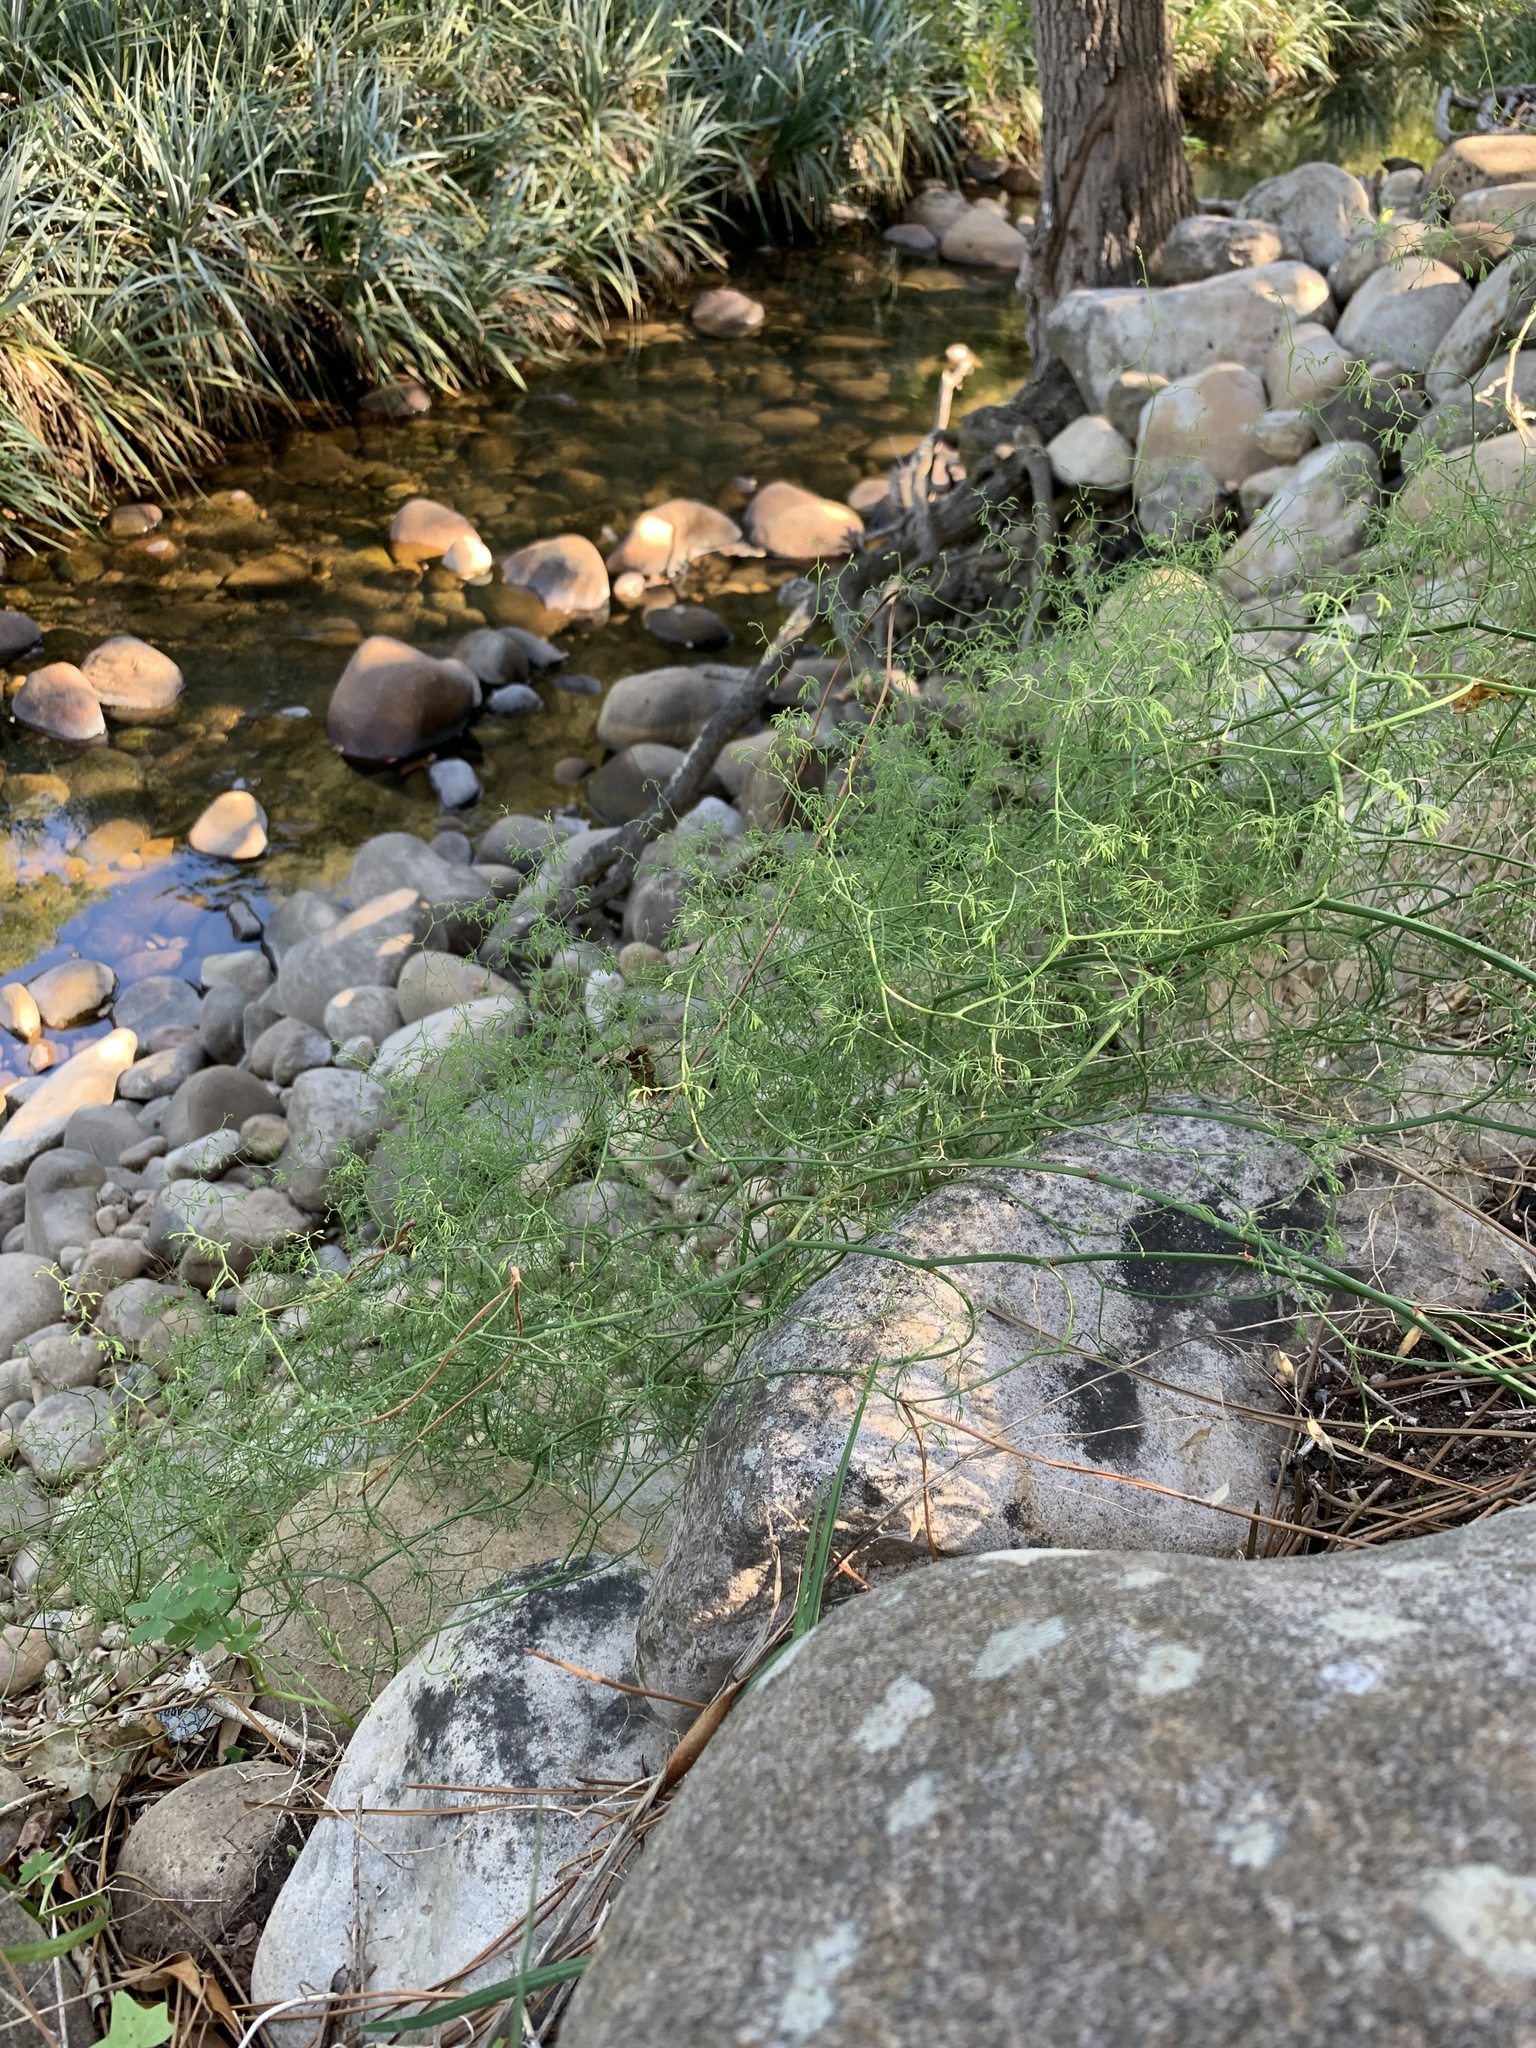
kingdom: Plantae
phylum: Tracheophyta
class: Liliopsida
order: Asparagales
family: Asparagaceae
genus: Asparagus
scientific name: Asparagus declinatus
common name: Bridal-creeper
